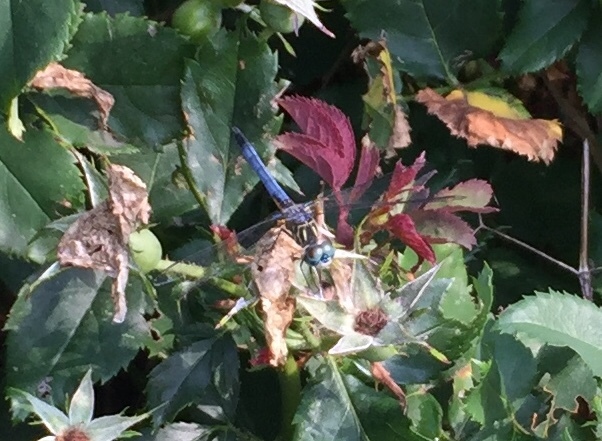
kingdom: Animalia
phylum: Arthropoda
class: Insecta
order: Odonata
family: Libellulidae
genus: Pachydiplax
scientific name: Pachydiplax longipennis
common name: Blue dasher
